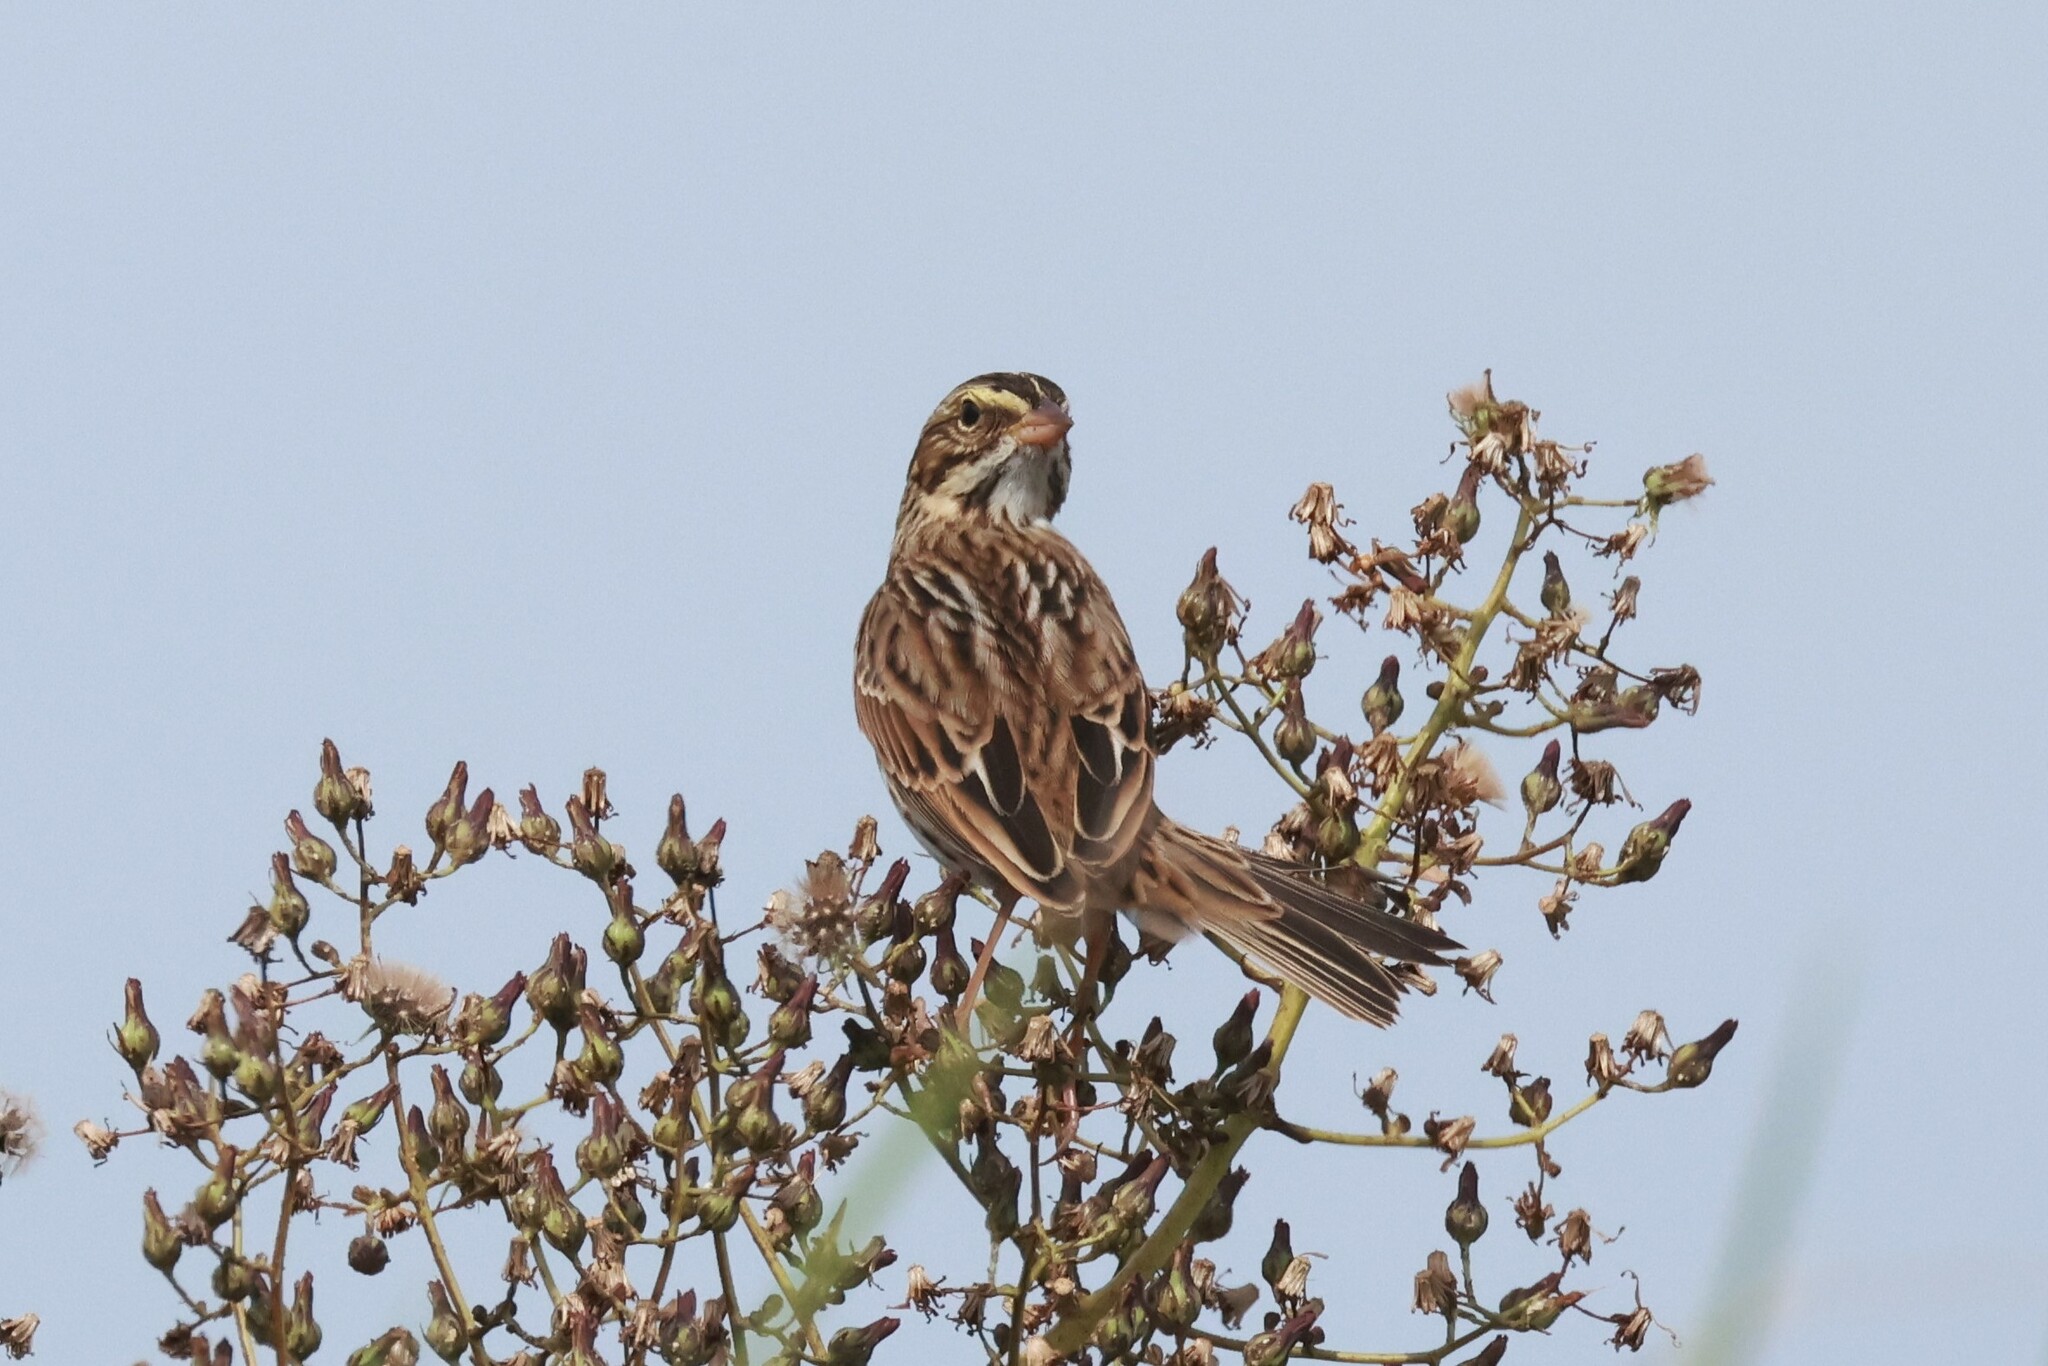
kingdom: Animalia
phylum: Chordata
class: Aves
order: Passeriformes
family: Passerellidae
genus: Passerculus
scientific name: Passerculus sandwichensis
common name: Savannah sparrow
